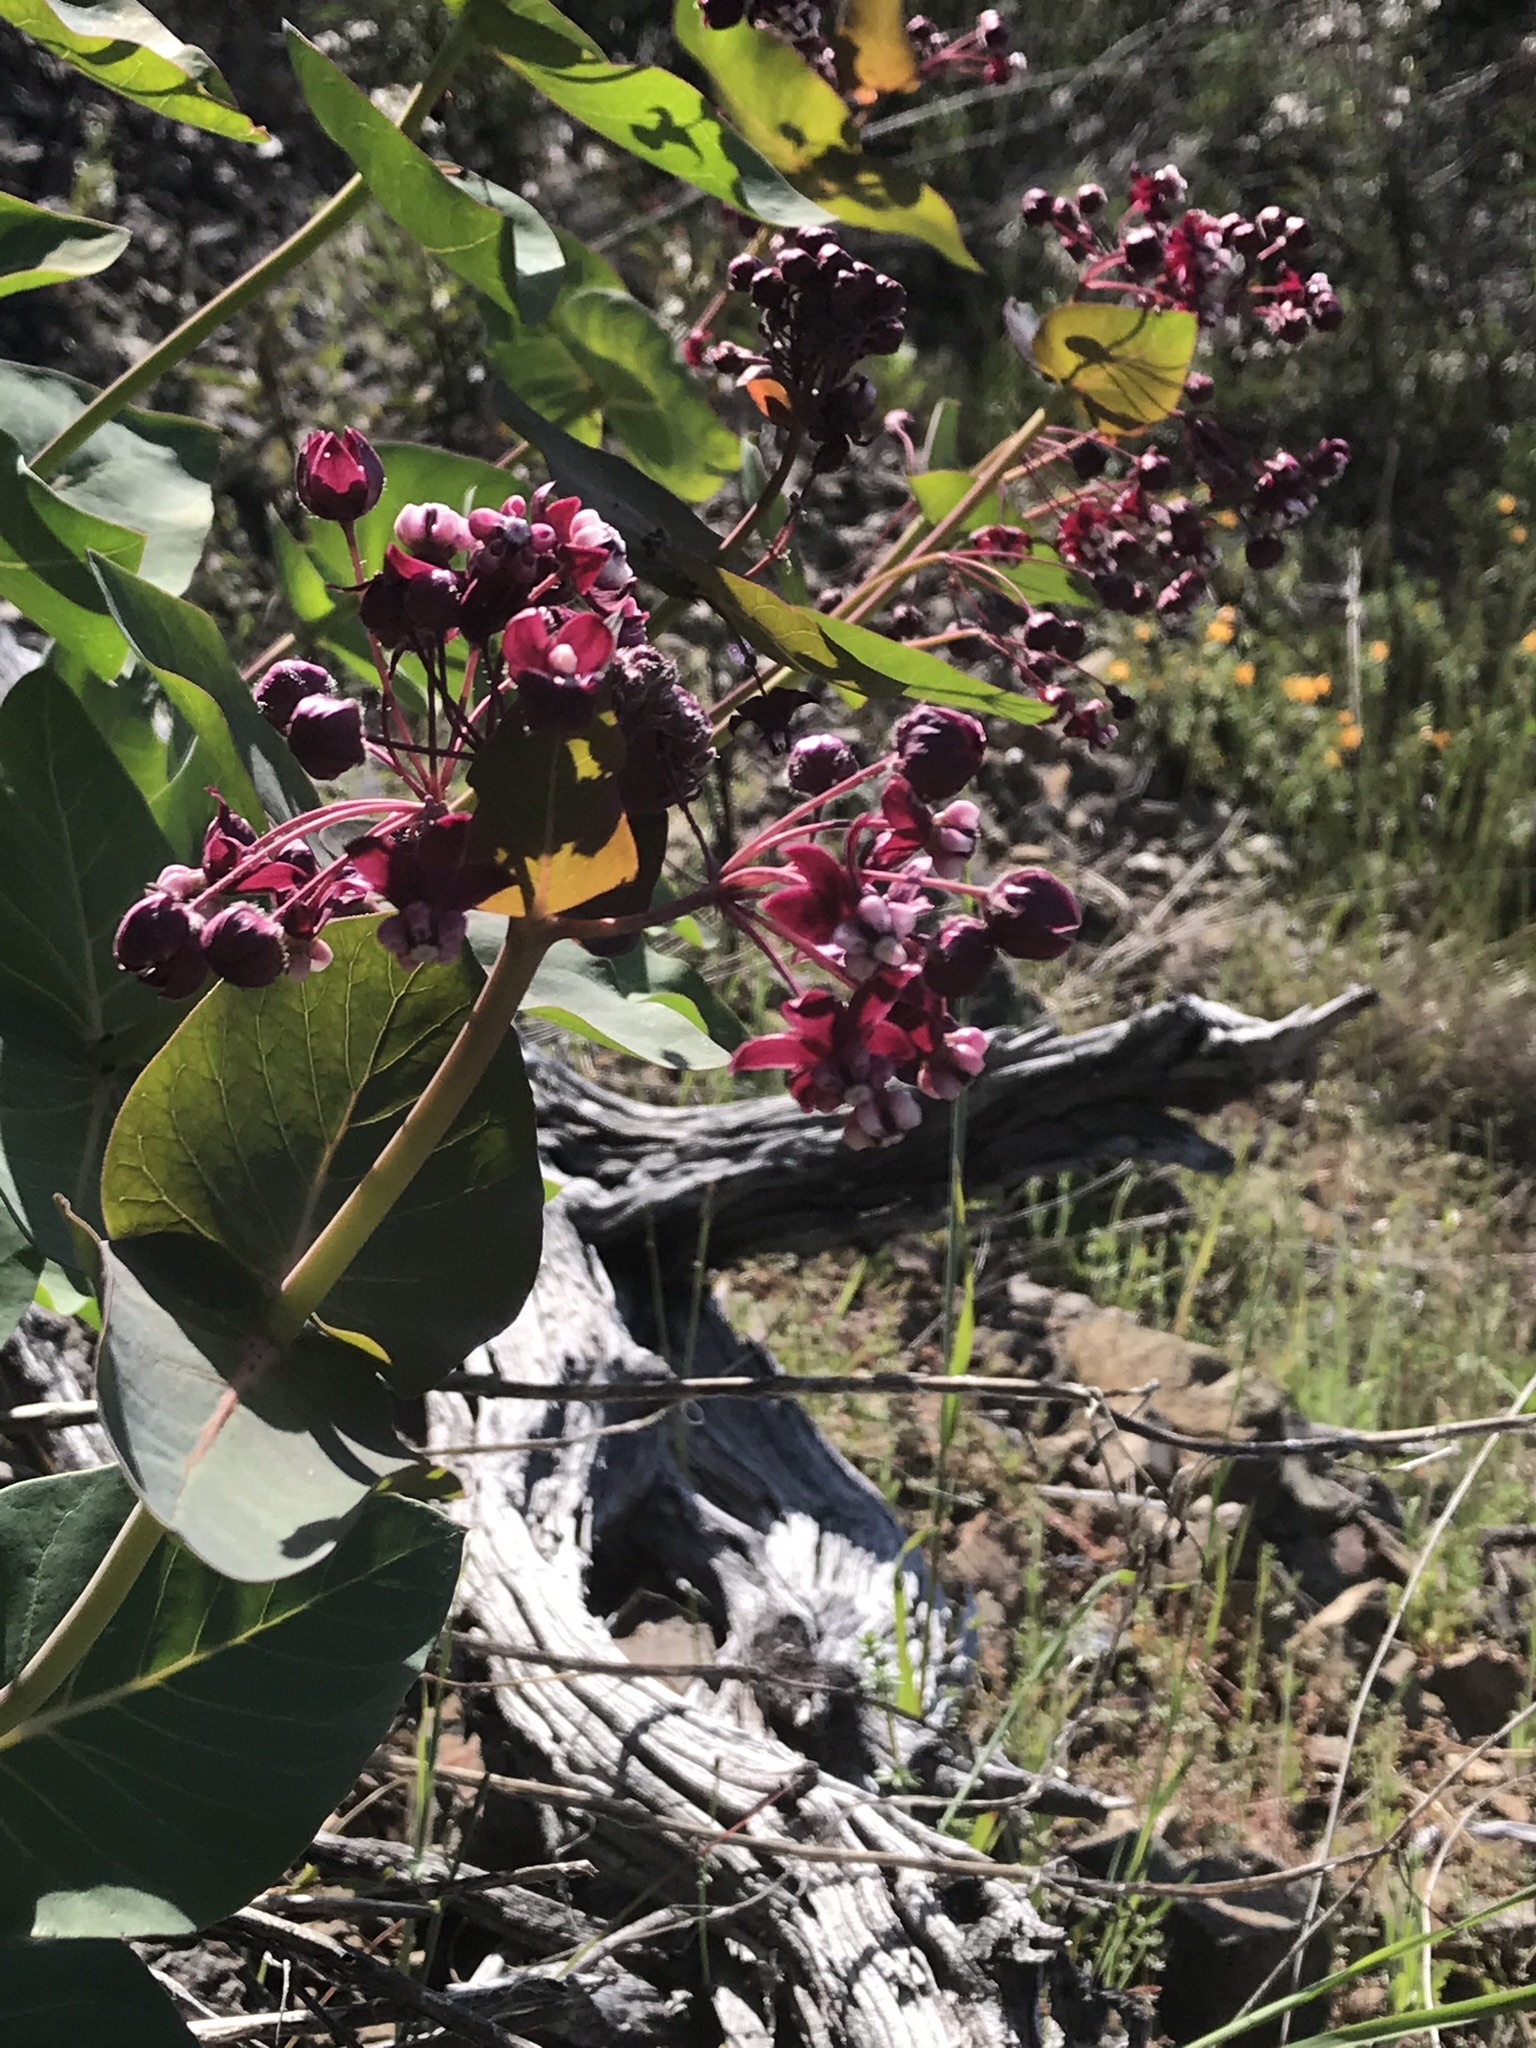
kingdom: Plantae
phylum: Tracheophyta
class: Magnoliopsida
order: Gentianales
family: Apocynaceae
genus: Asclepias
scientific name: Asclepias cordifolia
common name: Purple milkweed
